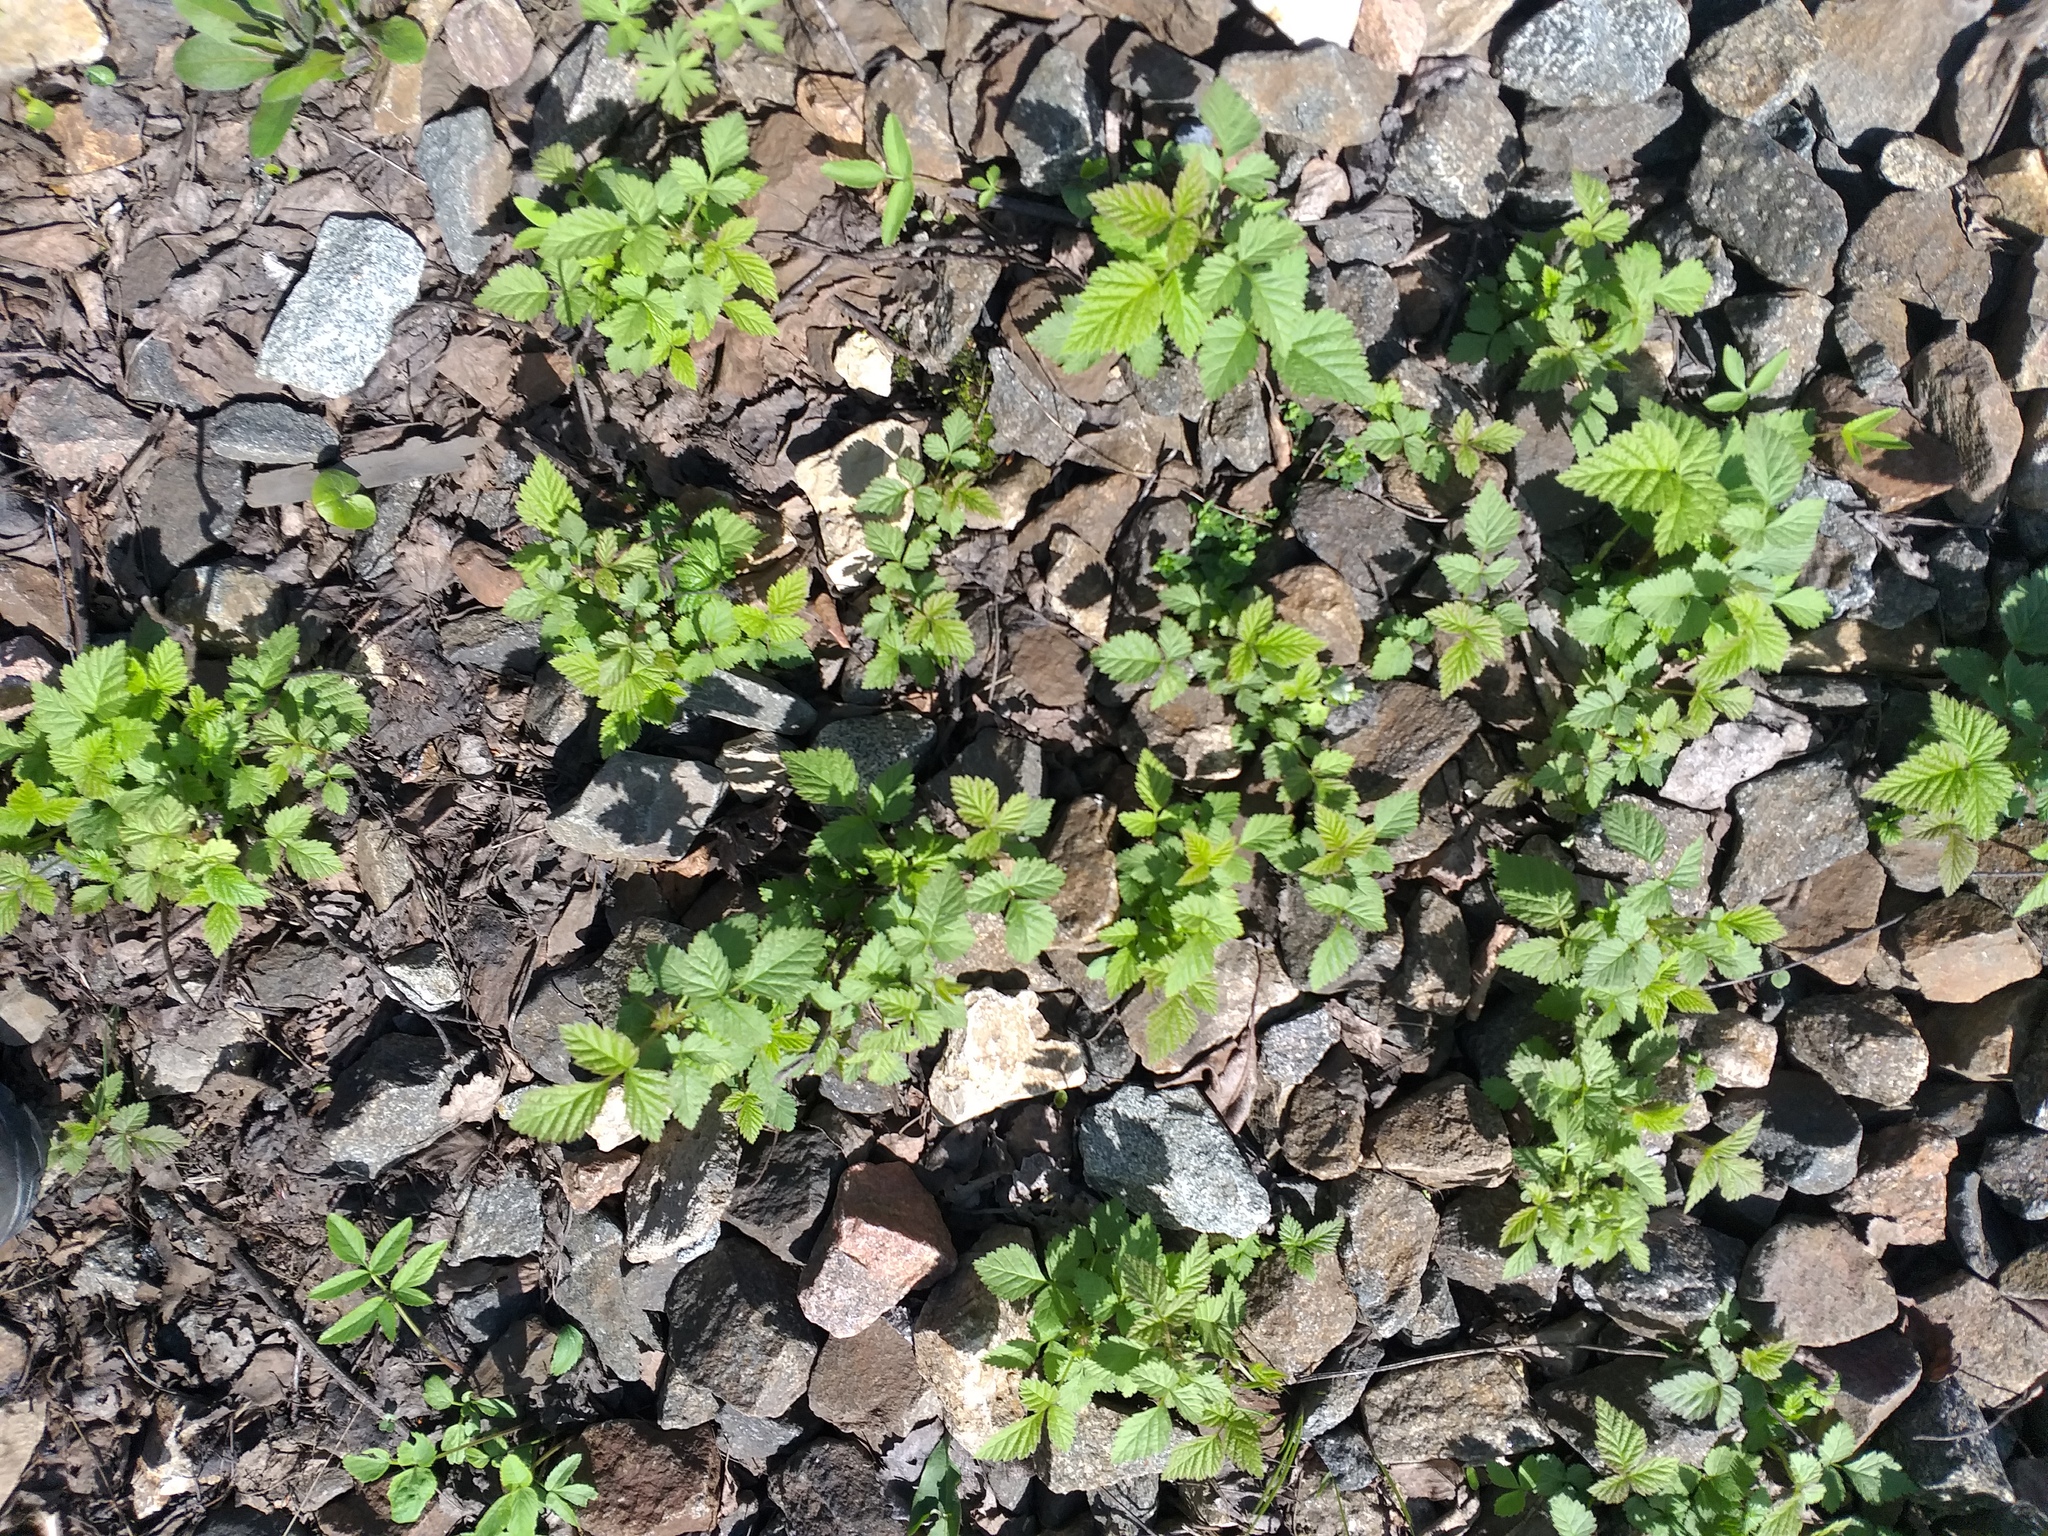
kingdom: Plantae
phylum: Tracheophyta
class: Magnoliopsida
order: Rosales
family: Rosaceae
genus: Rubus
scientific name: Rubus idaeus
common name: Raspberry
